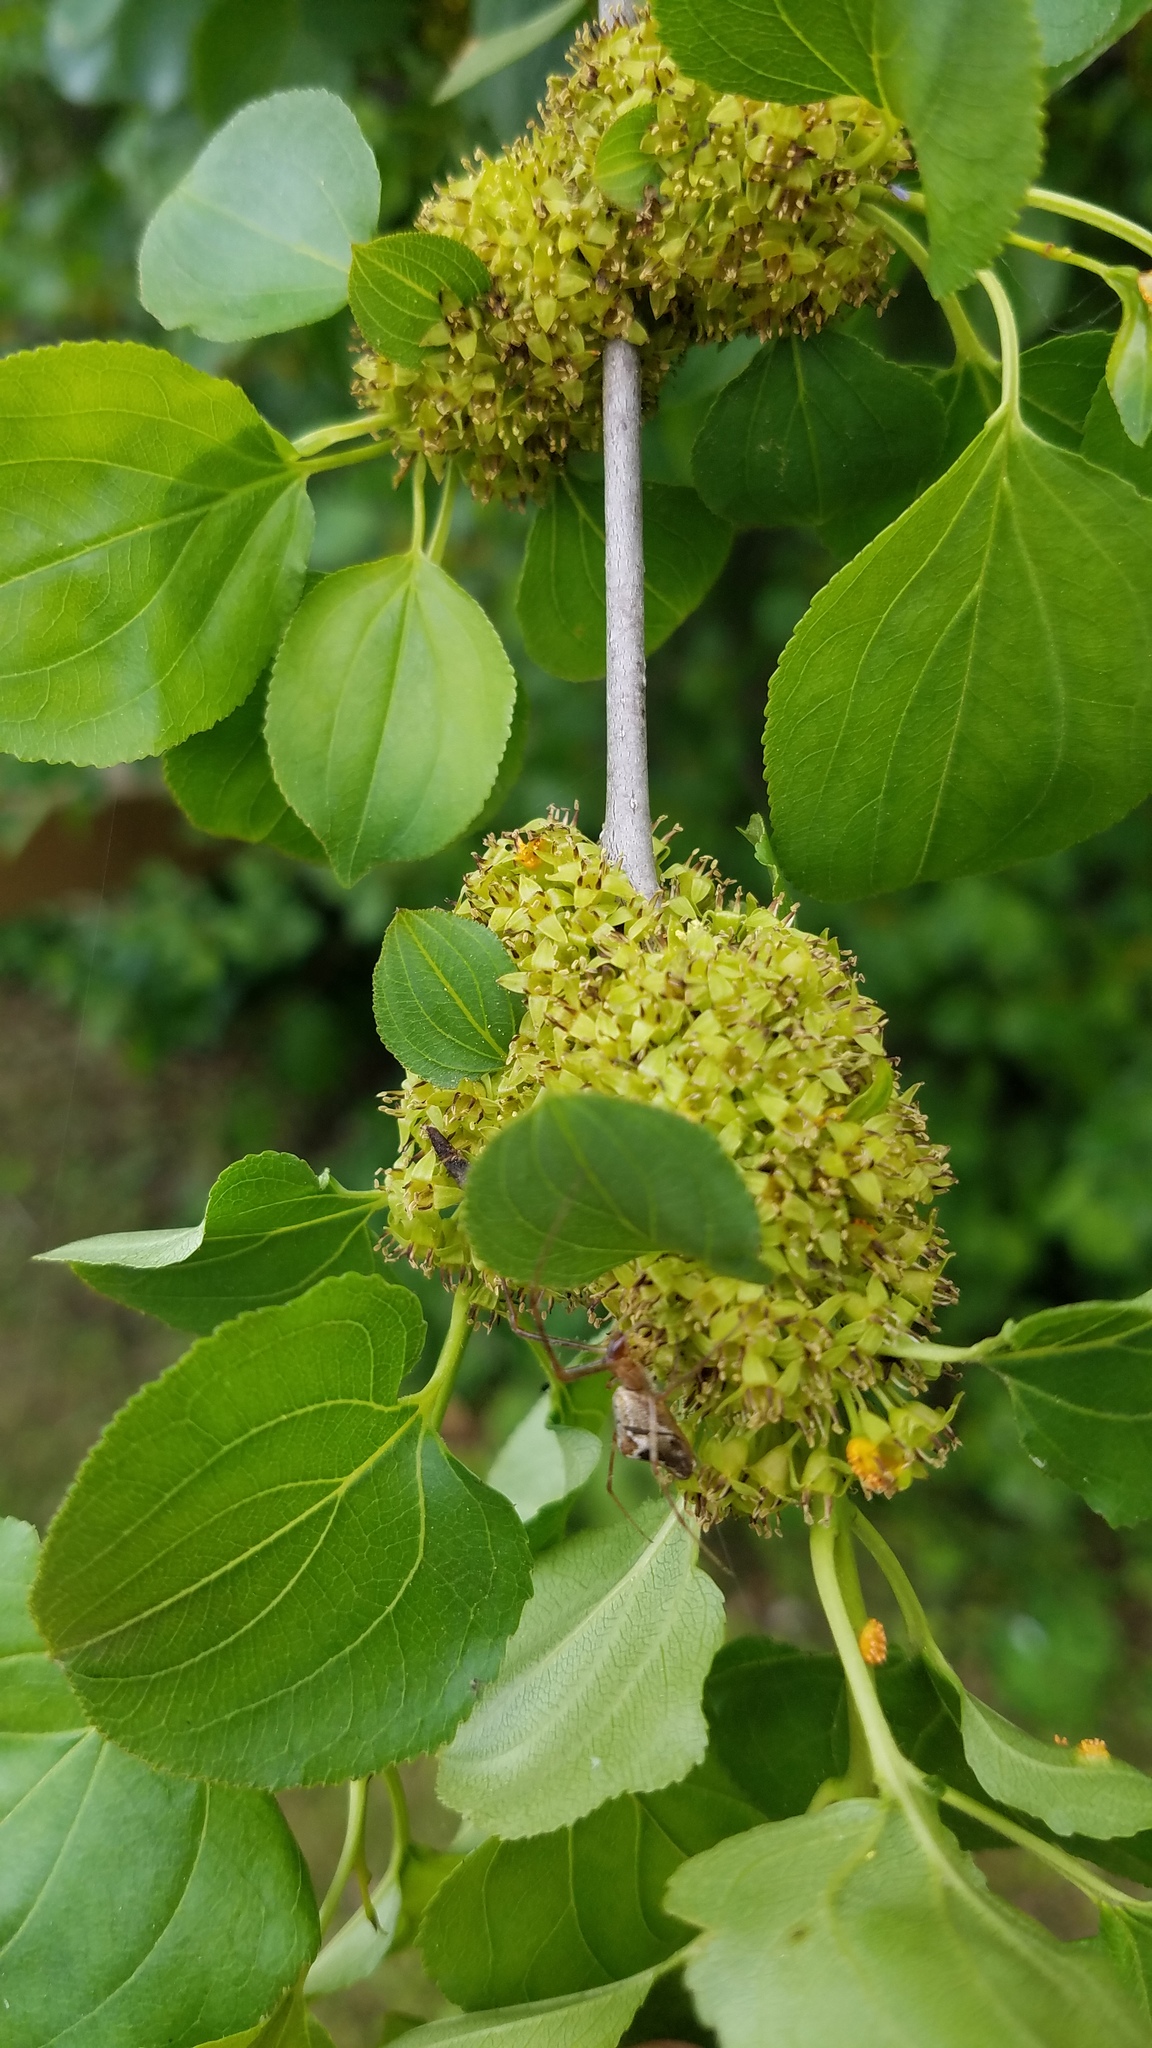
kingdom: Plantae
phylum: Tracheophyta
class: Magnoliopsida
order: Rosales
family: Rhamnaceae
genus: Rhamnus
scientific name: Rhamnus cathartica
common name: Common buckthorn
